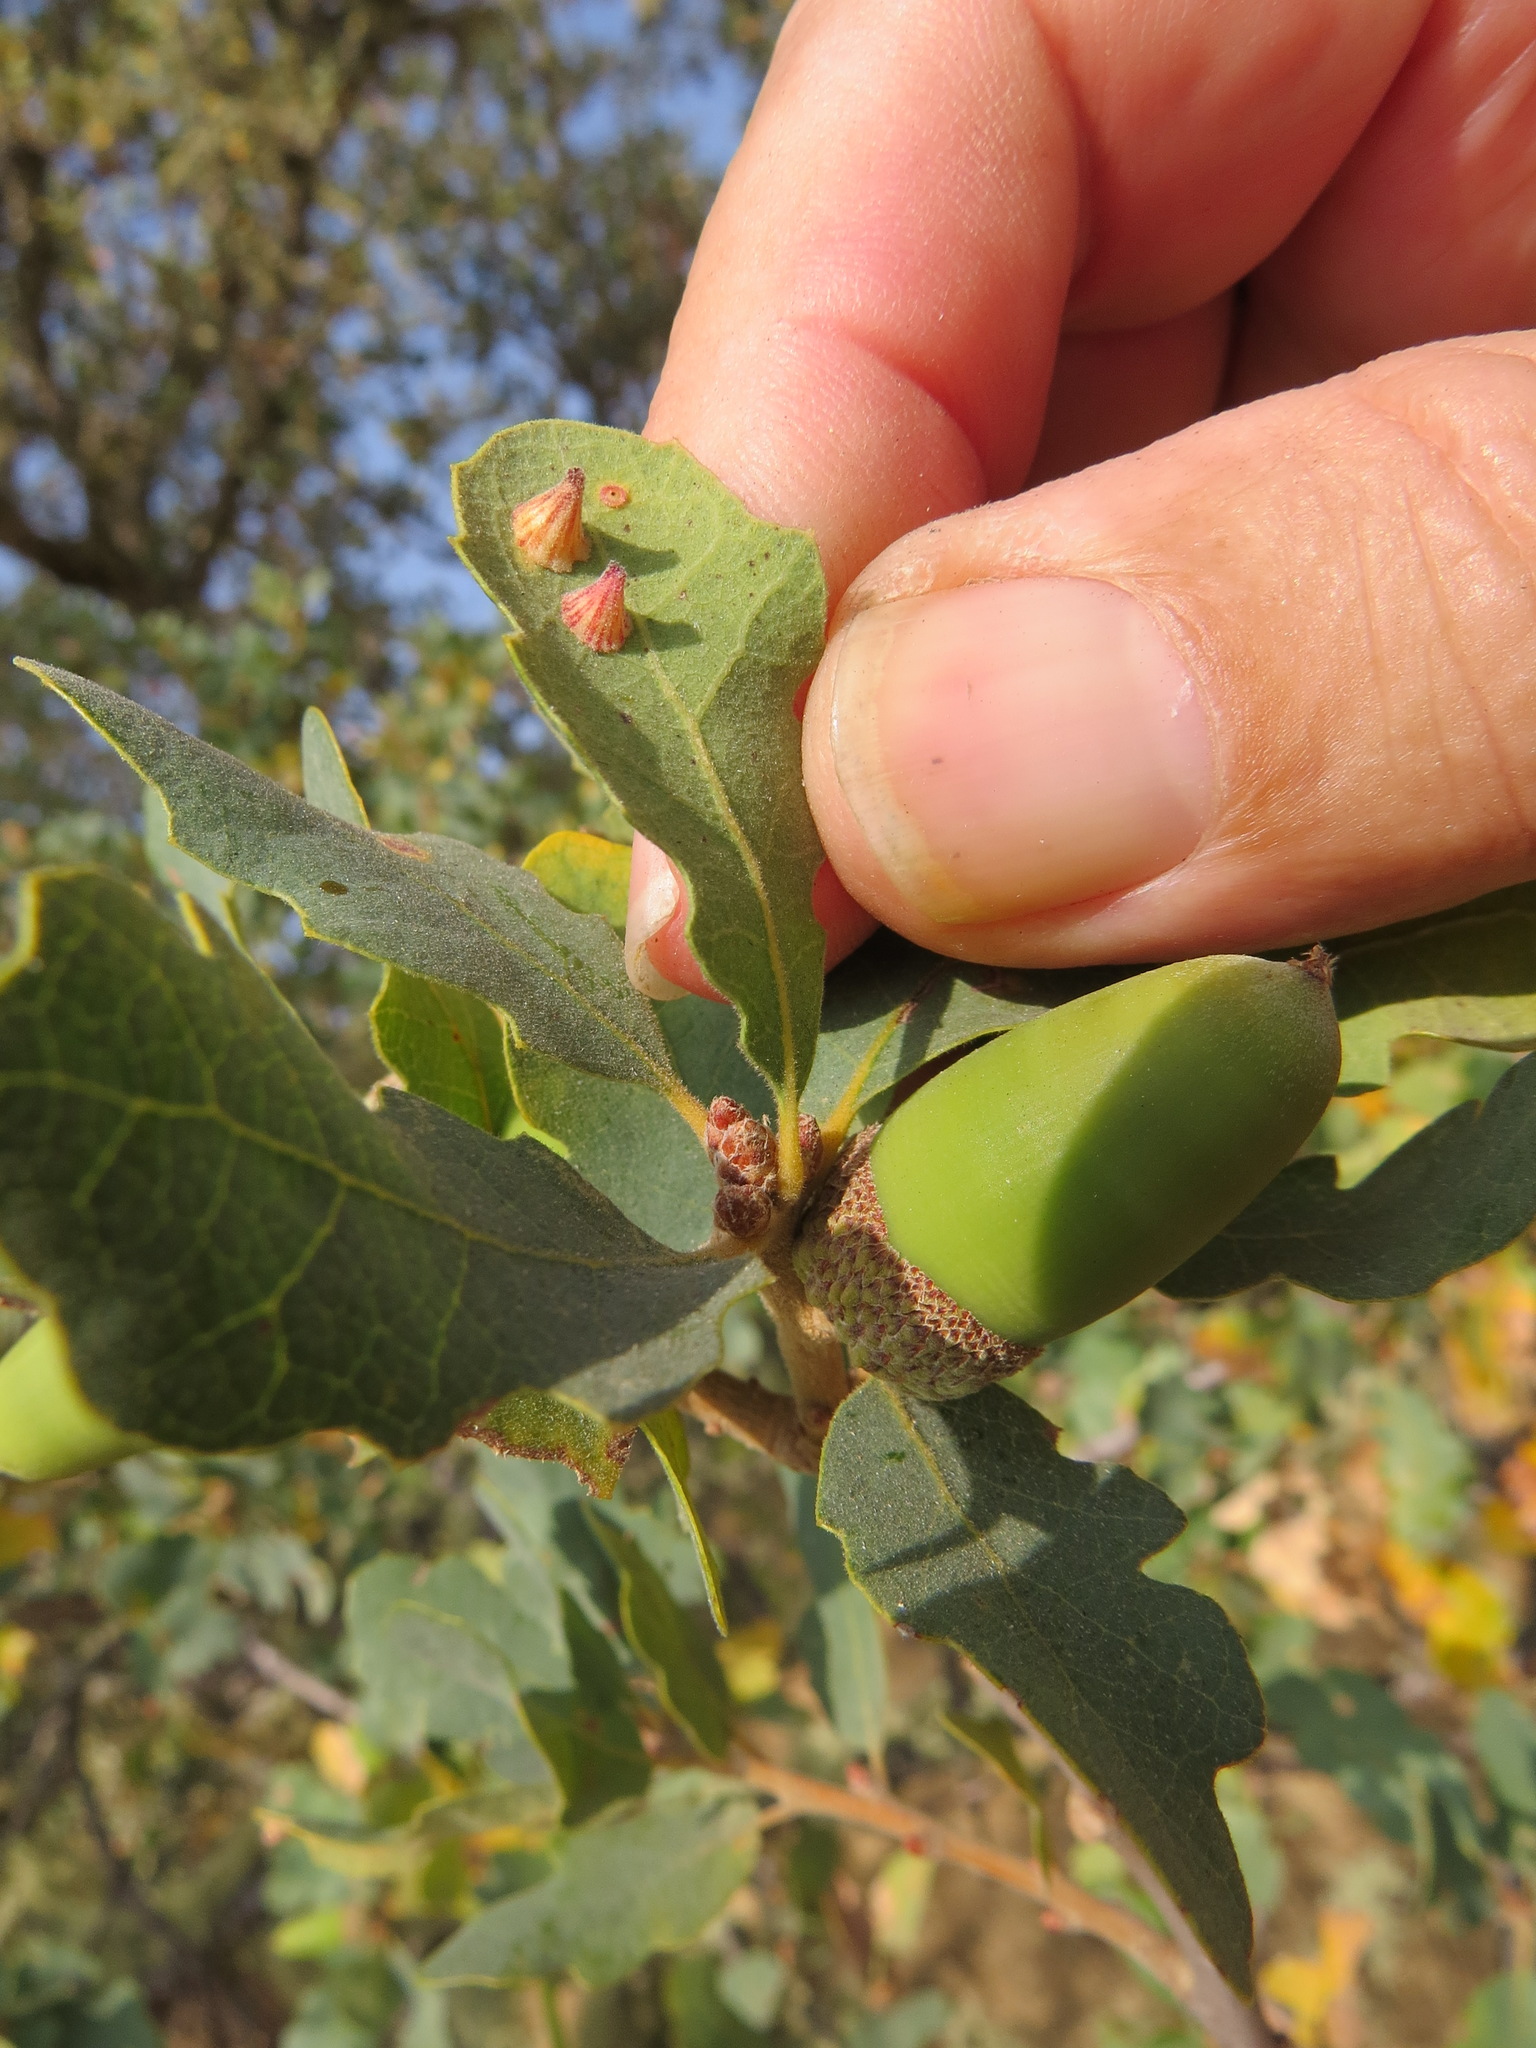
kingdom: Animalia
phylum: Arthropoda
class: Insecta
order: Hymenoptera
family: Cynipidae
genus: Andricus
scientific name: Andricus
